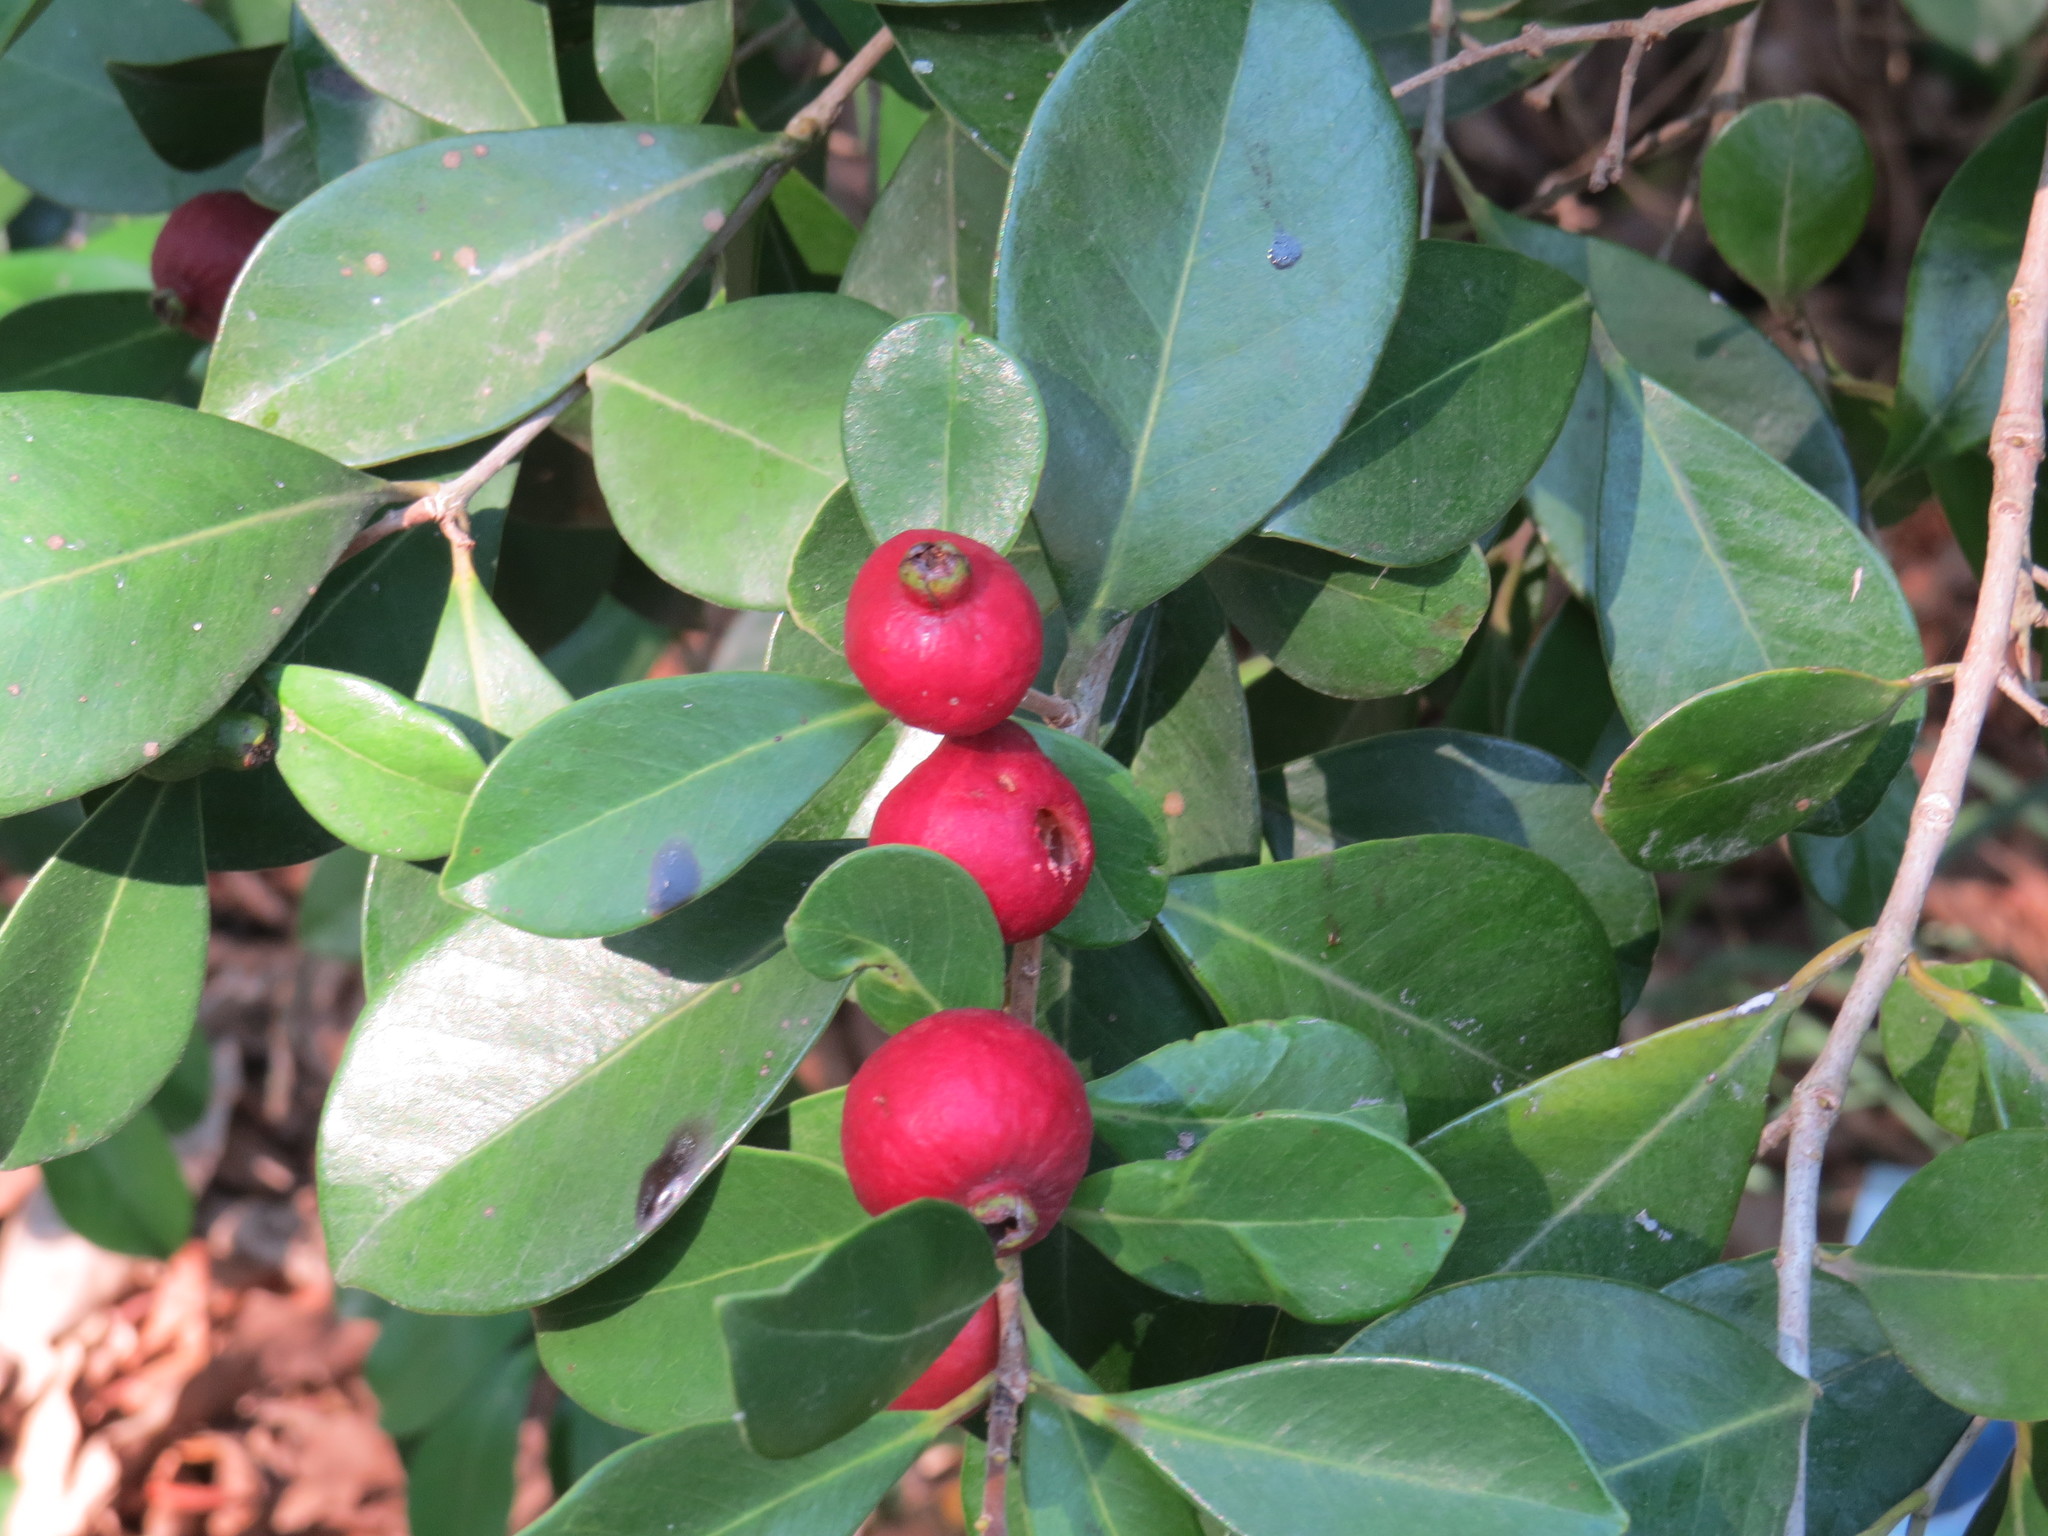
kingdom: Plantae
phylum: Tracheophyta
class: Magnoliopsida
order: Myrtales
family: Myrtaceae
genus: Psidium
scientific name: Psidium cattleianum
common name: Strawberry guava
